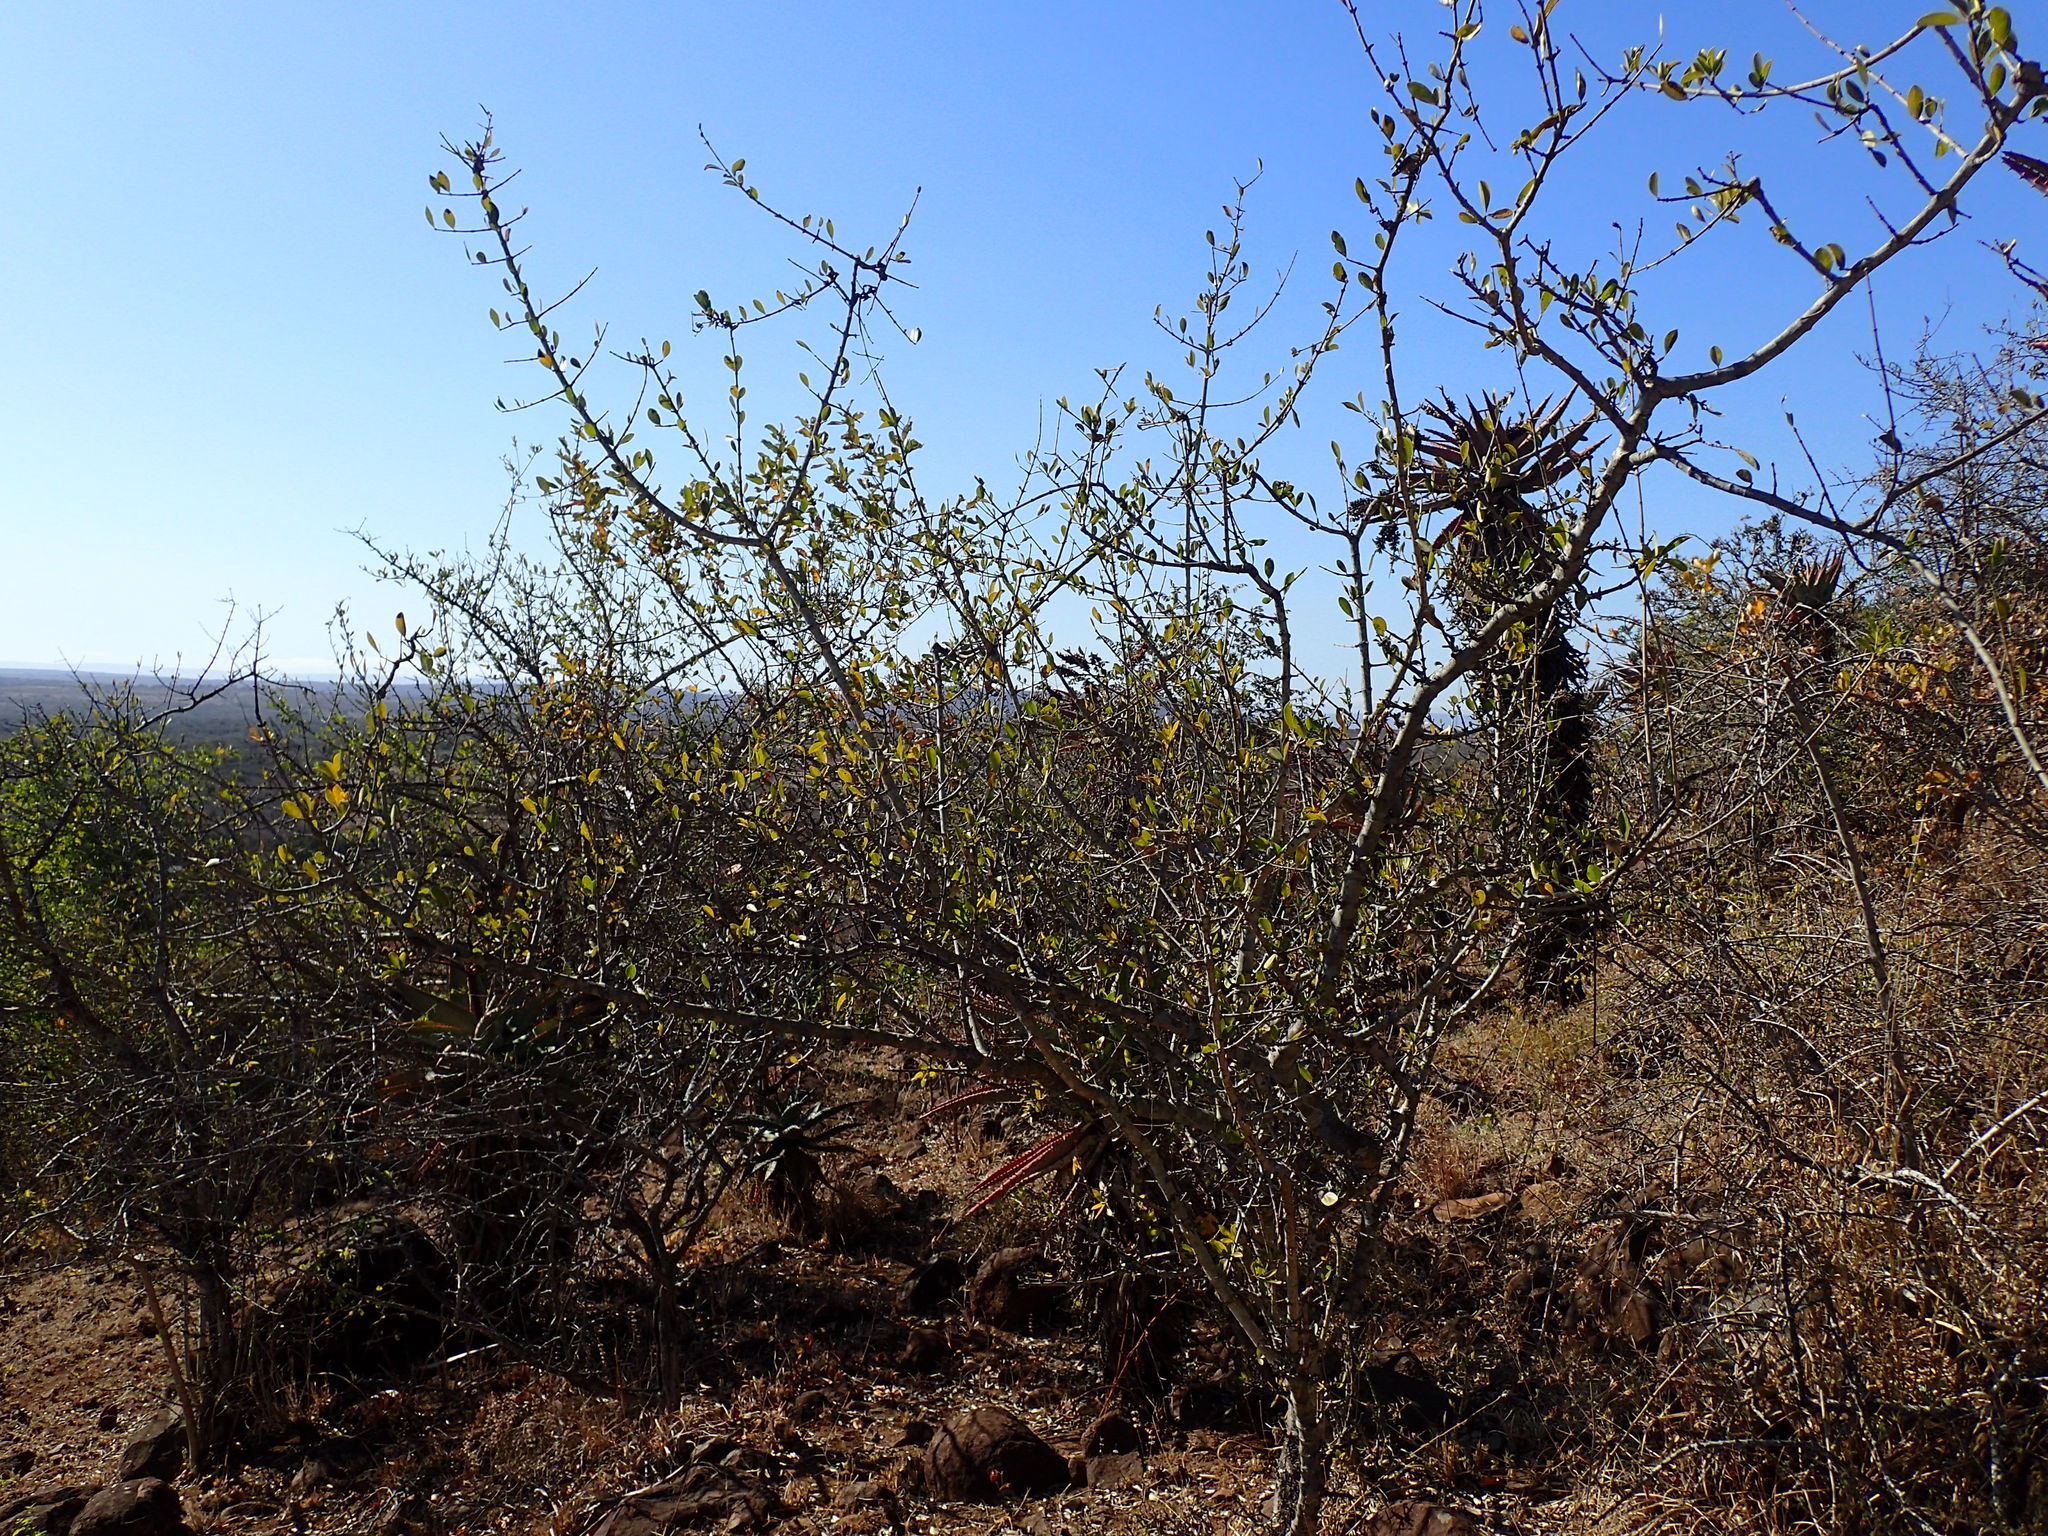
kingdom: Plantae
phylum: Tracheophyta
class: Magnoliopsida
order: Gentianales
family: Loganiaceae
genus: Strychnos
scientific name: Strychnos madagascariensis
